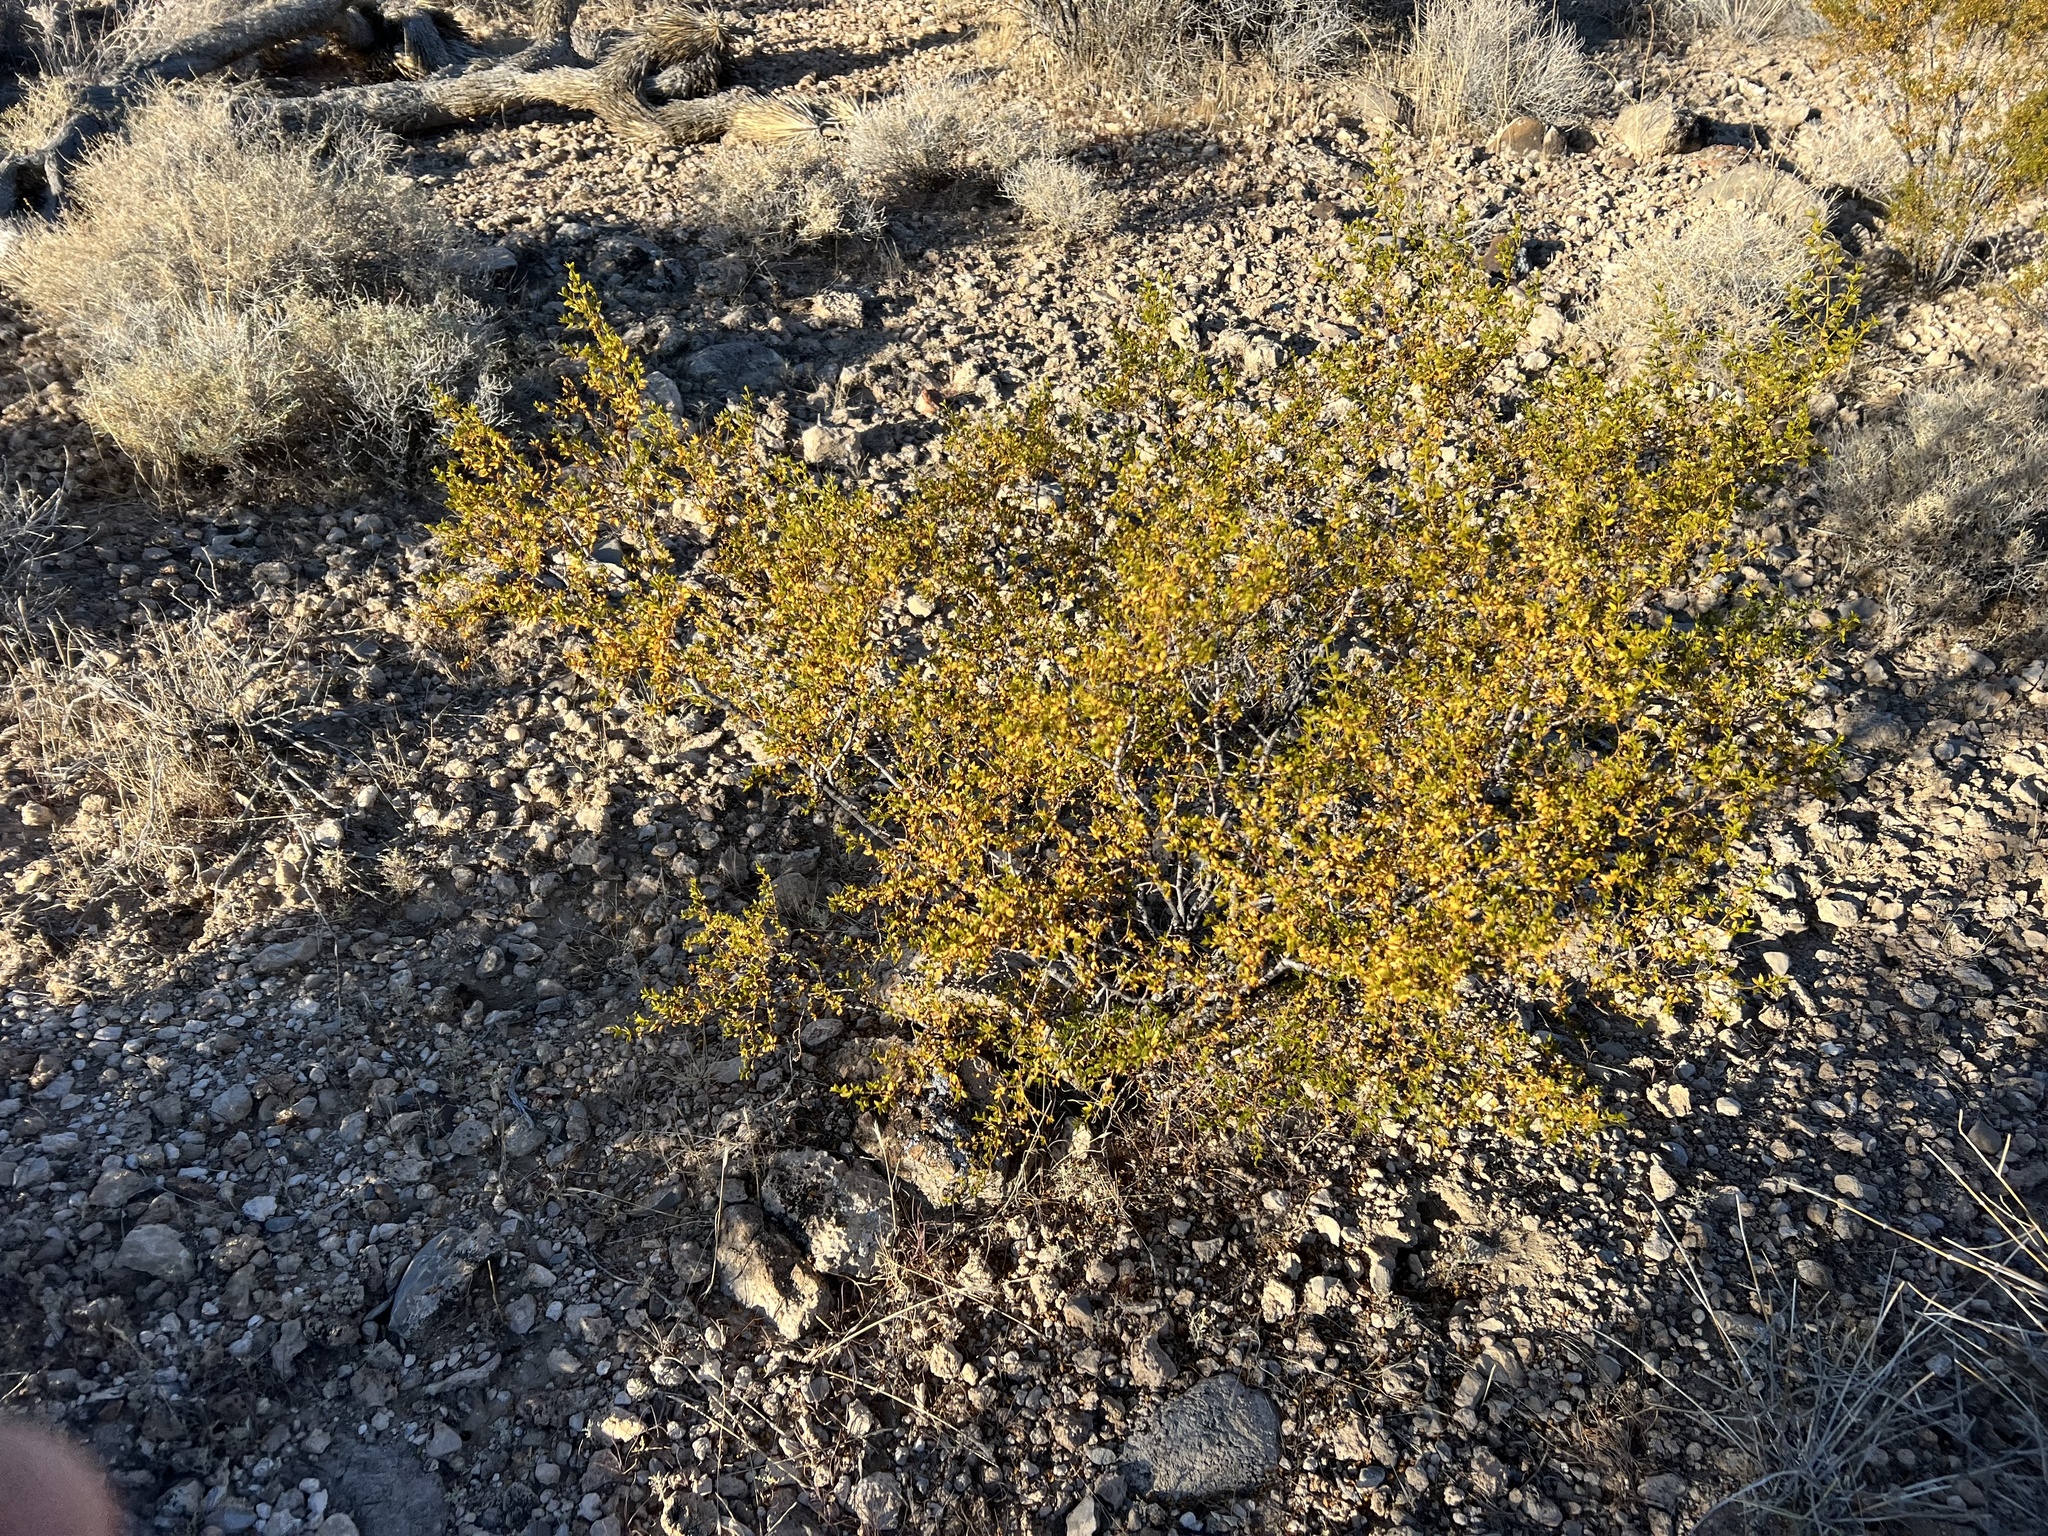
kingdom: Plantae
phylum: Tracheophyta
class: Magnoliopsida
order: Zygophyllales
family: Zygophyllaceae
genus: Larrea
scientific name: Larrea tridentata
